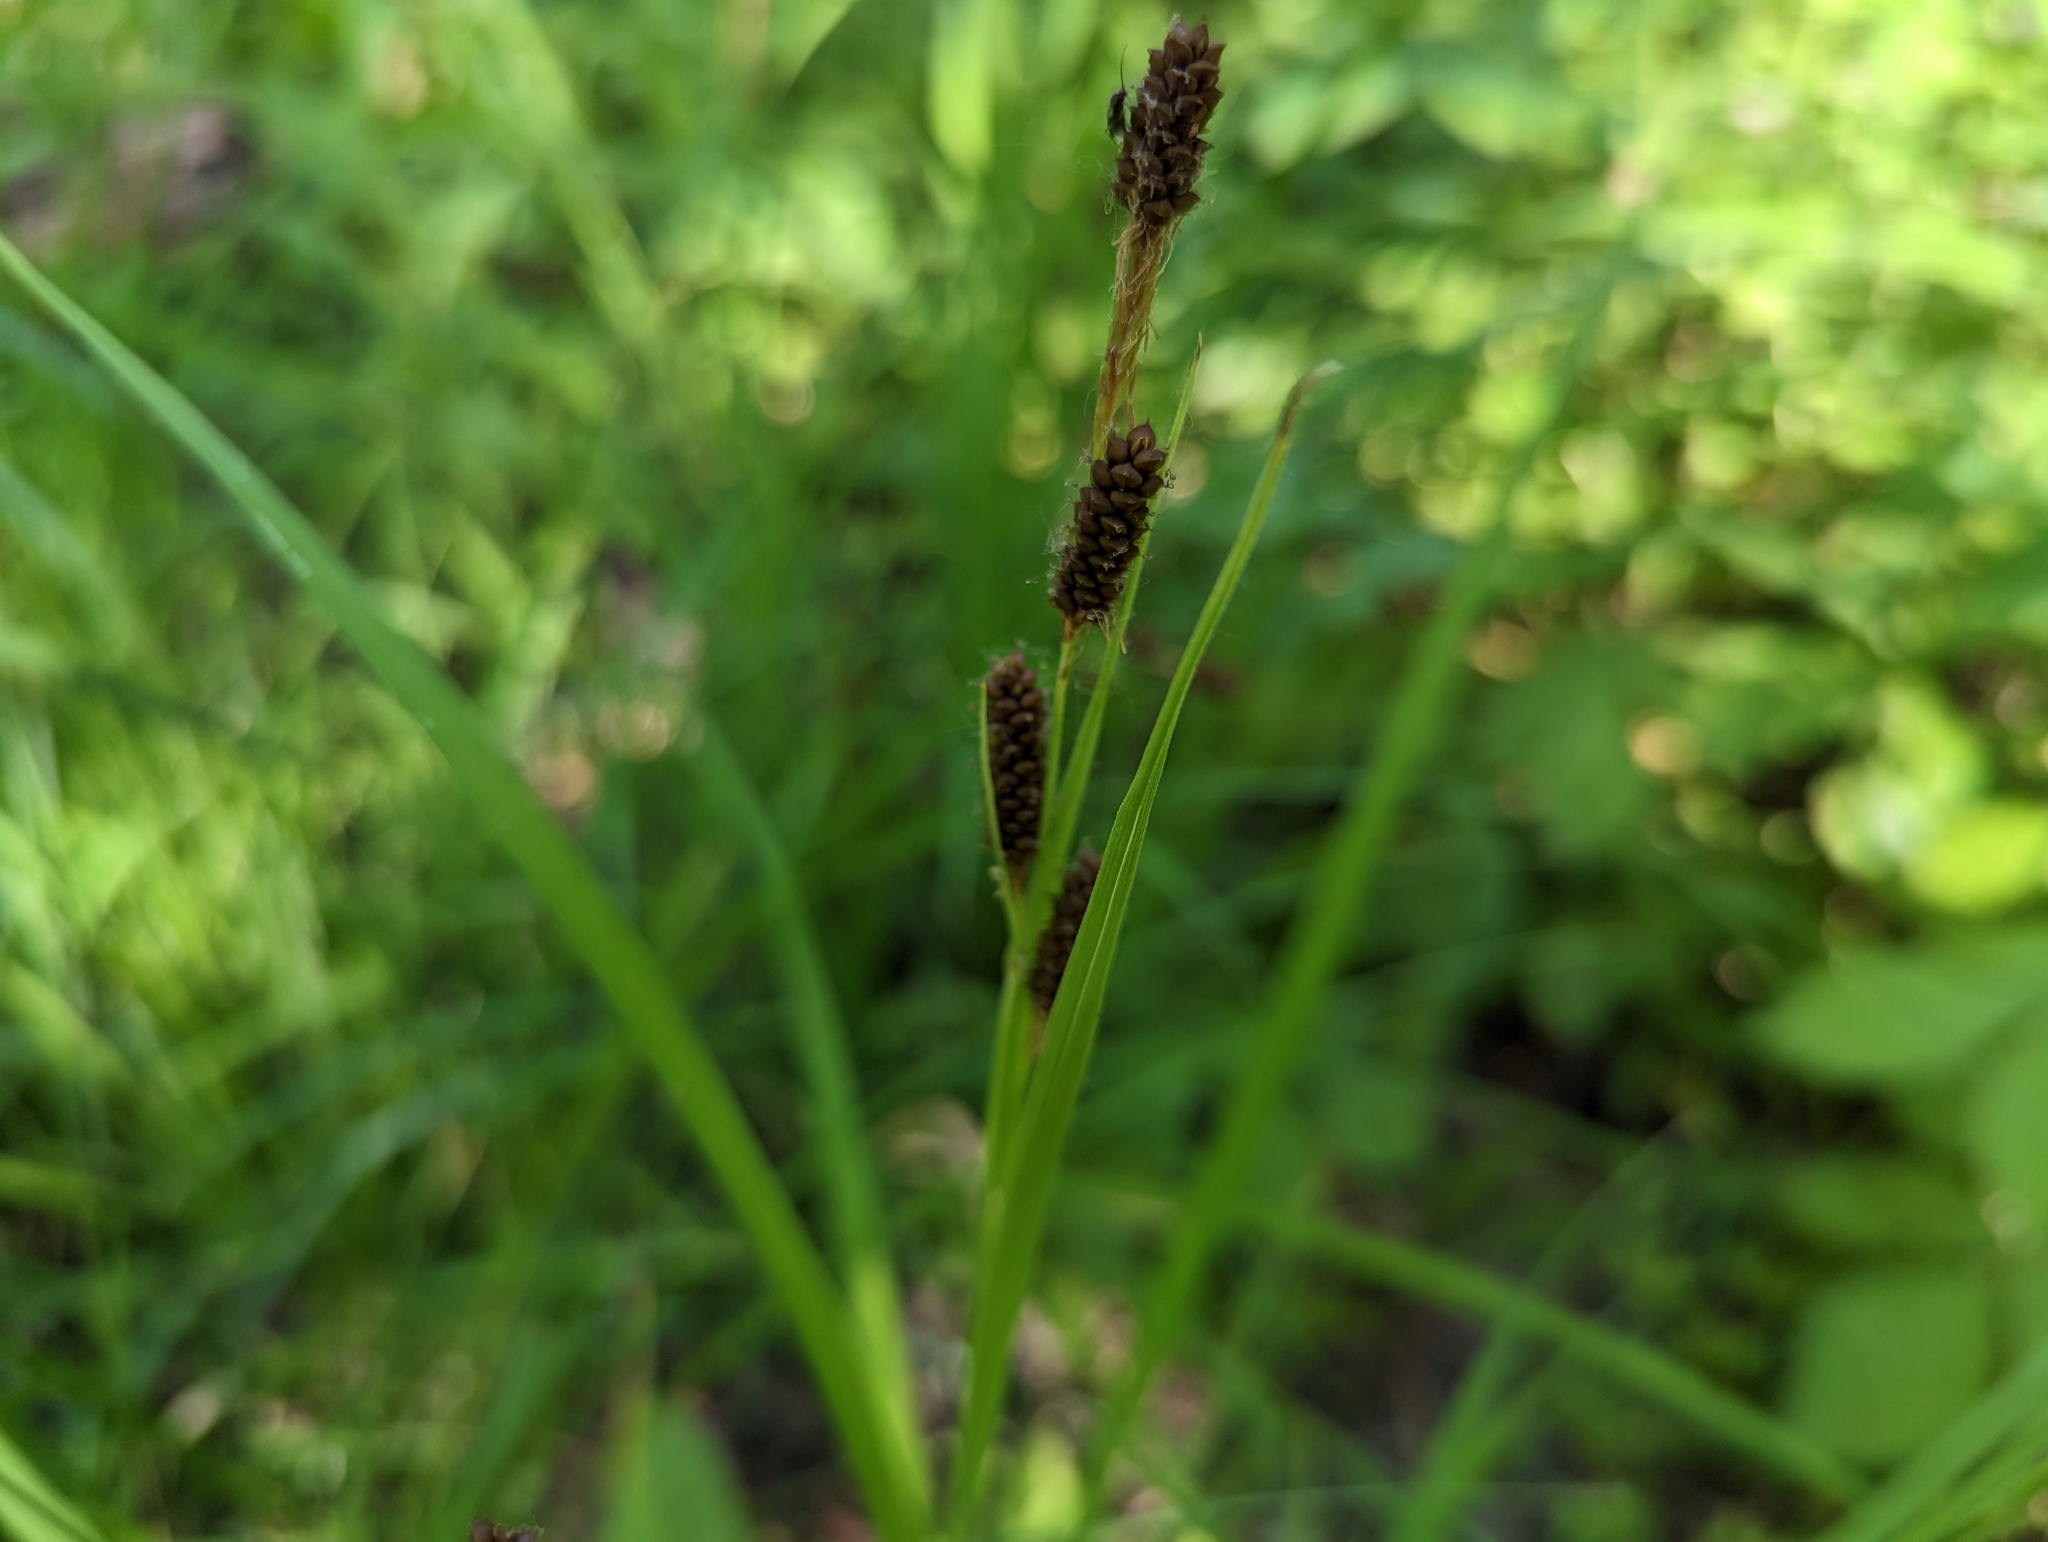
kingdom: Plantae
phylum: Tracheophyta
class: Liliopsida
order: Poales
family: Cyperaceae
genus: Carex
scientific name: Carex shortiana
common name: Short's sedge
